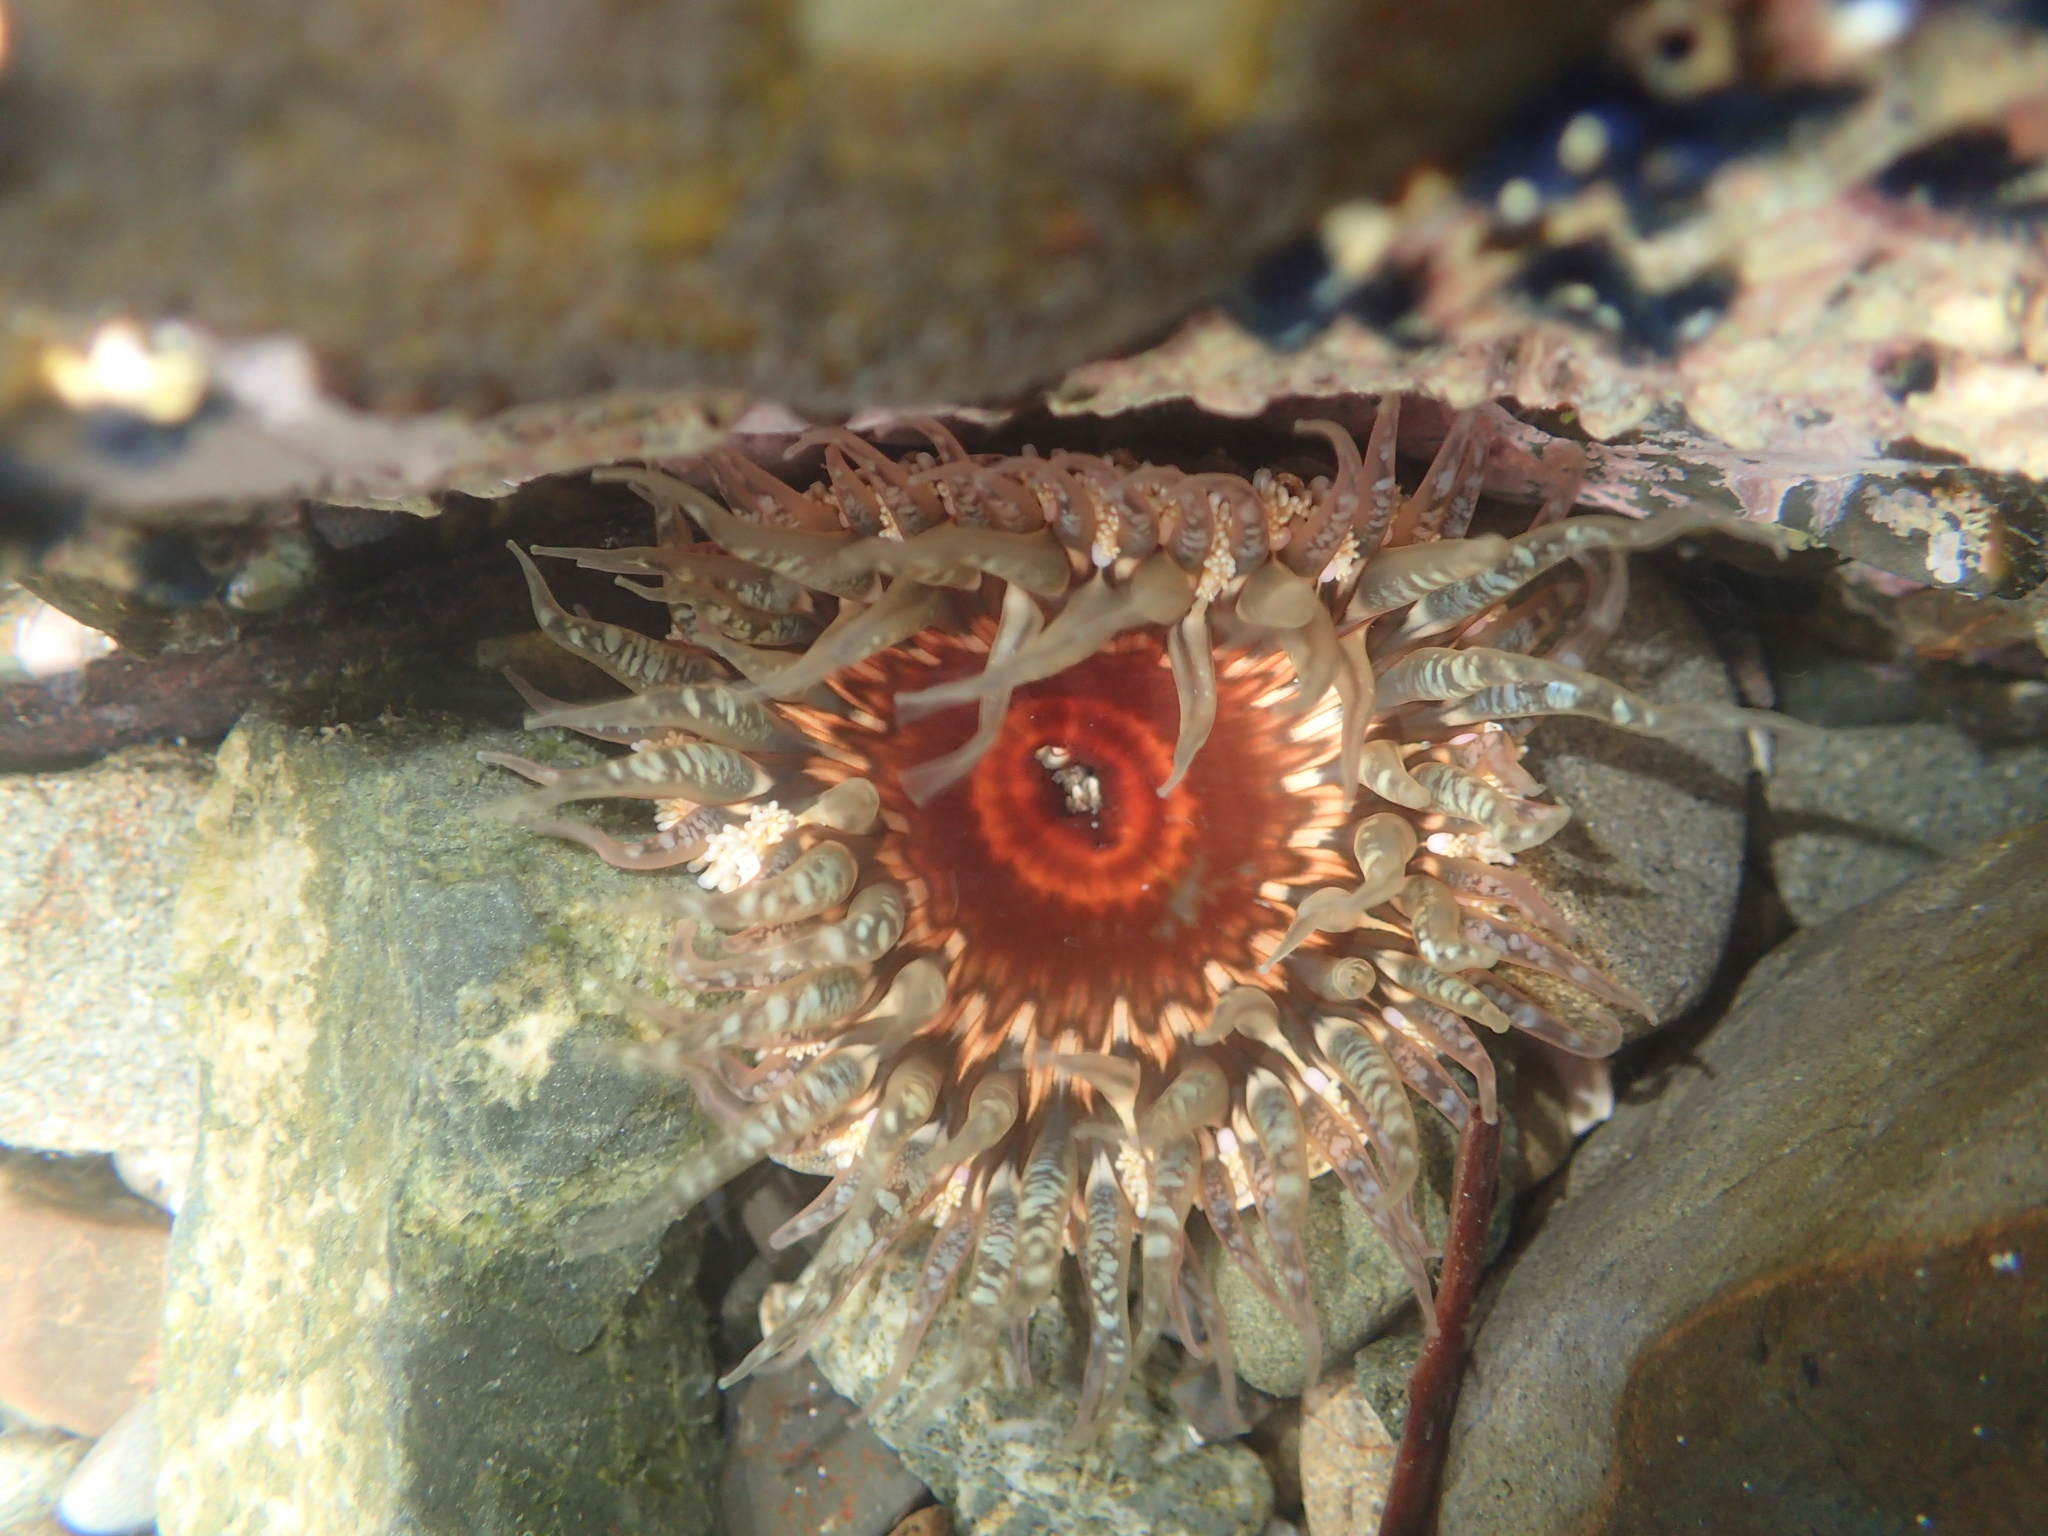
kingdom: Animalia
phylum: Cnidaria
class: Anthozoa
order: Actiniaria
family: Actiniidae
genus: Oulactis
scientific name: Oulactis muscosa
